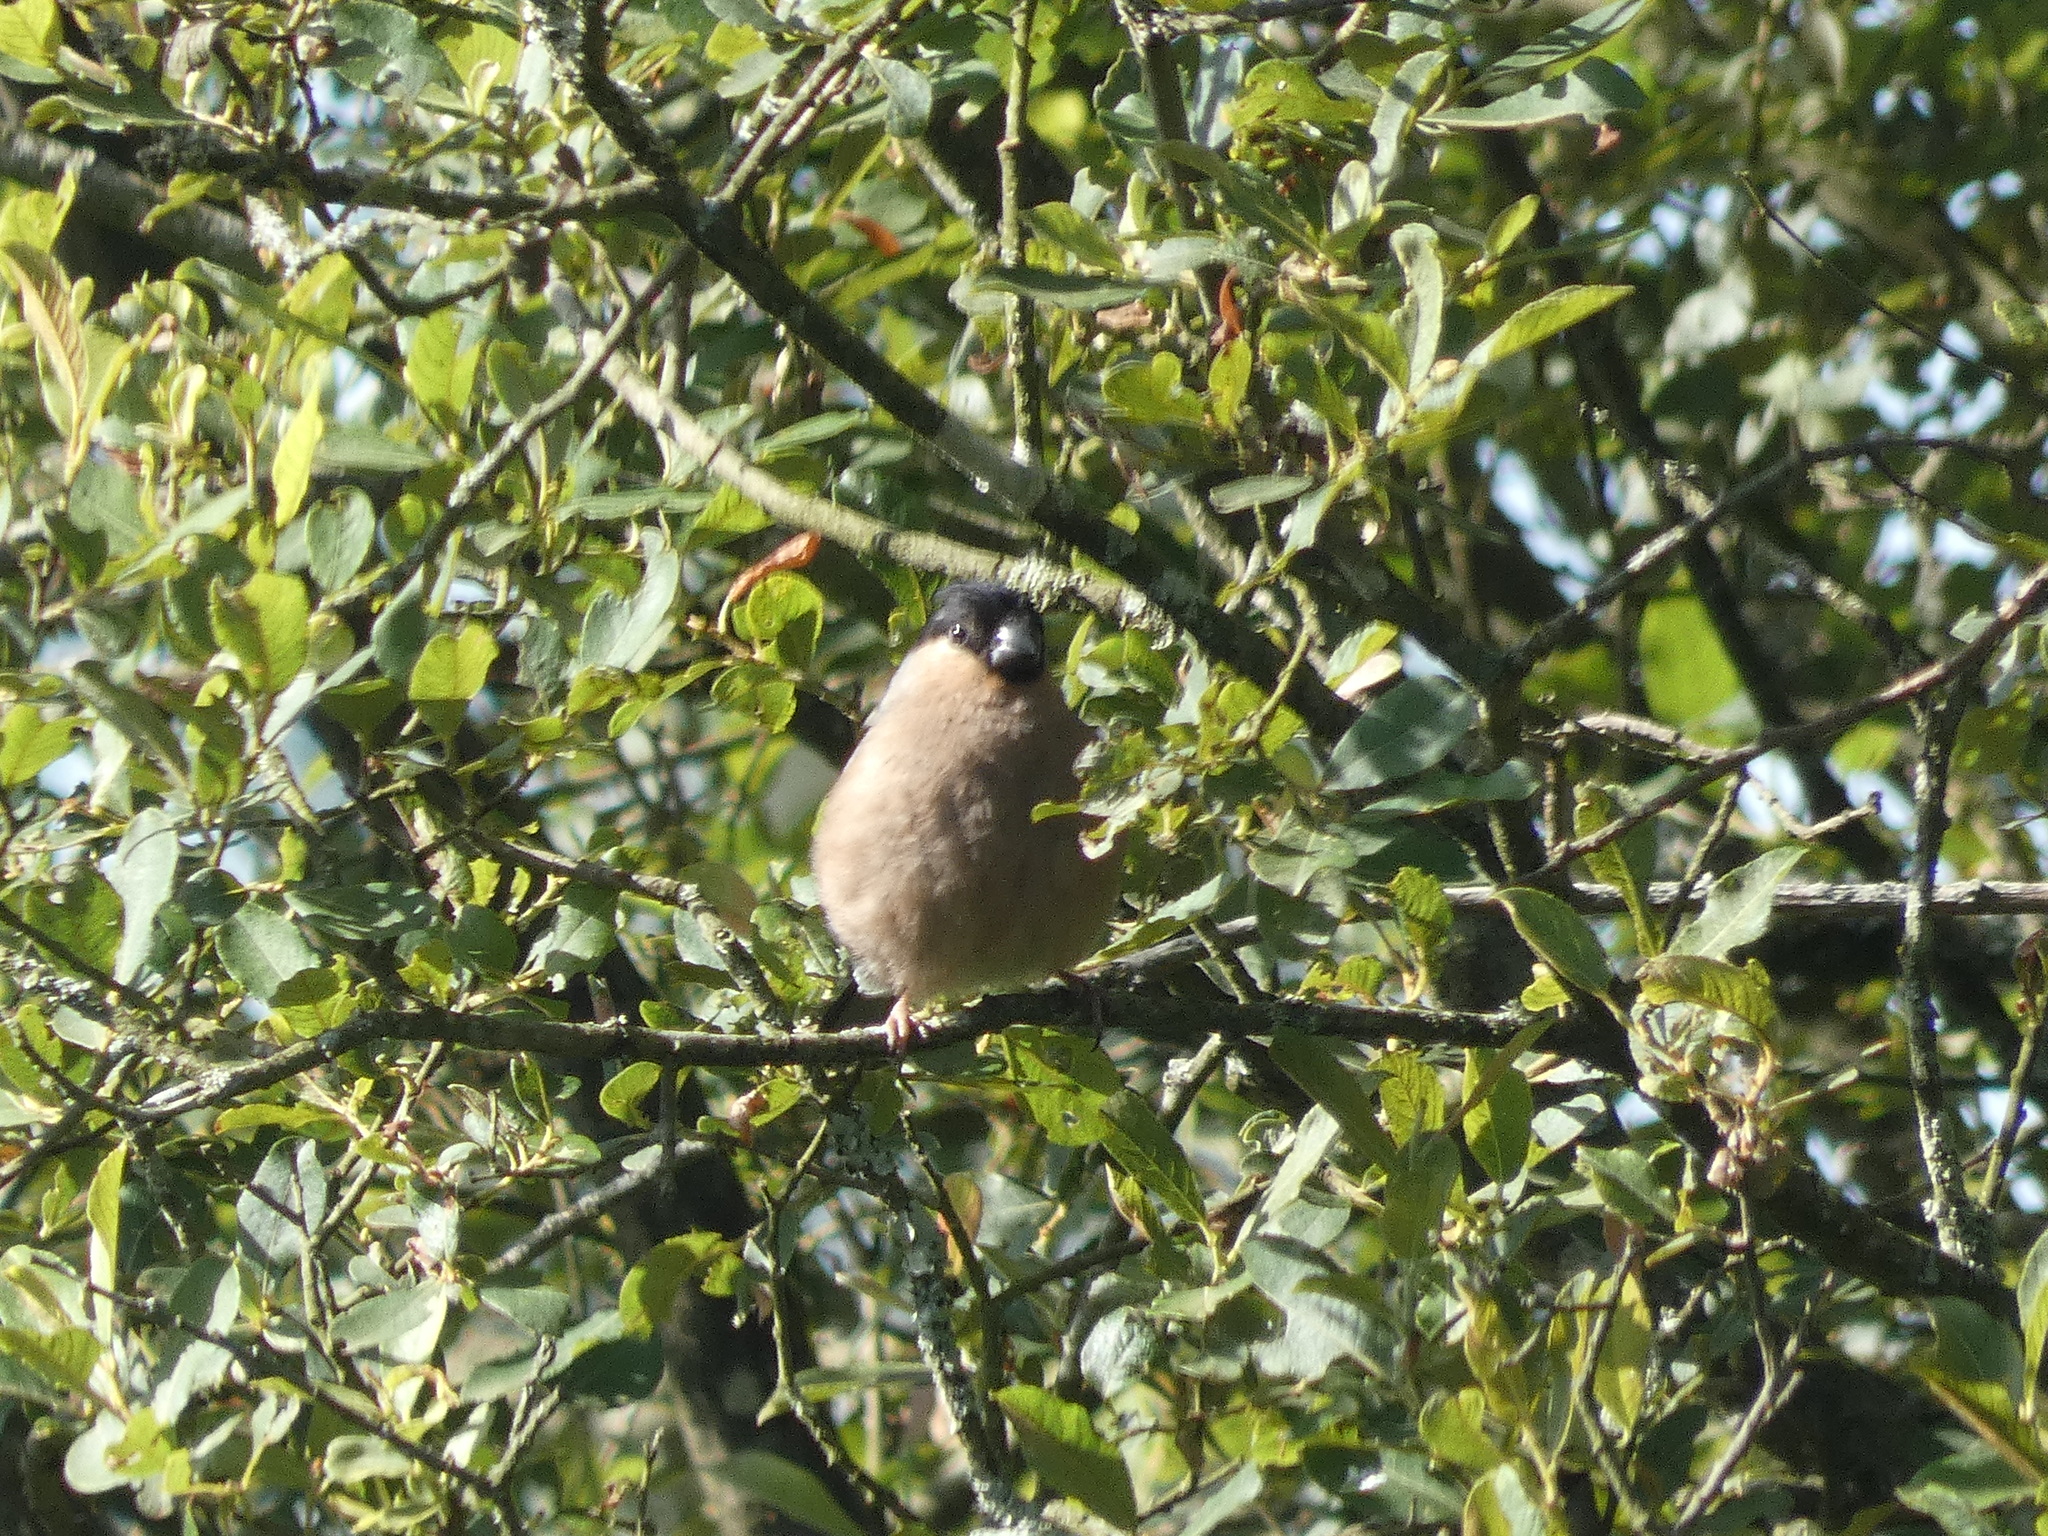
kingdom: Animalia
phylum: Chordata
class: Aves
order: Passeriformes
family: Fringillidae
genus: Pyrrhula
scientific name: Pyrrhula pyrrhula
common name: Eurasian bullfinch
